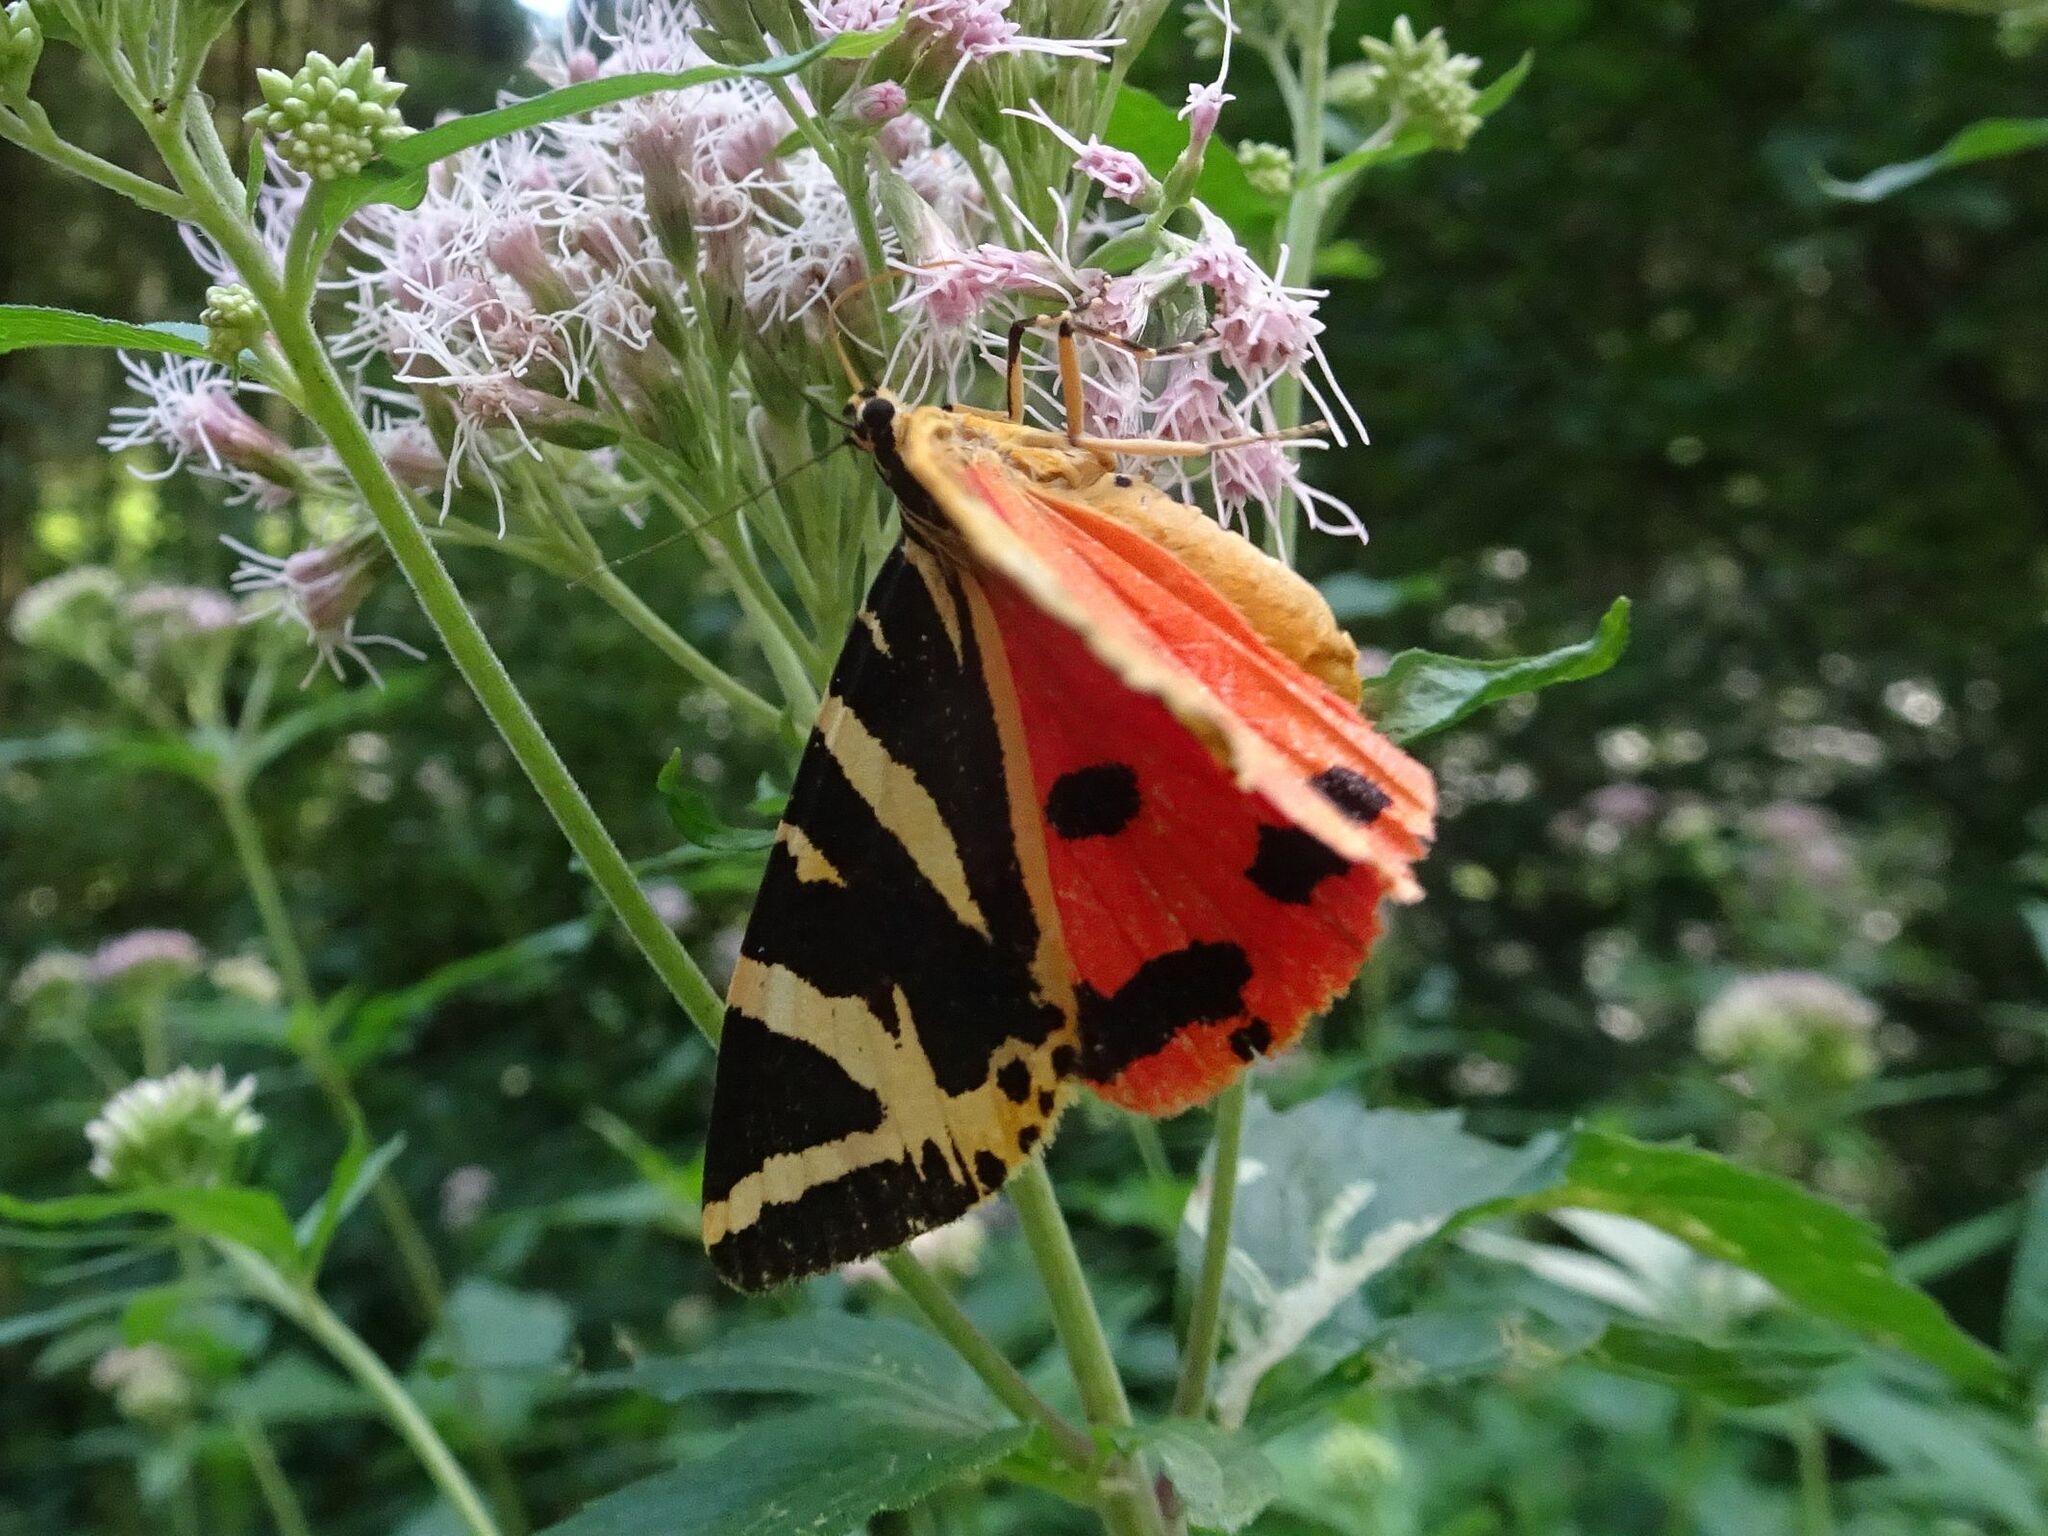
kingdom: Animalia
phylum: Arthropoda
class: Insecta
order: Lepidoptera
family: Erebidae
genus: Euplagia
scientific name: Euplagia quadripunctaria
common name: Jersey tiger
